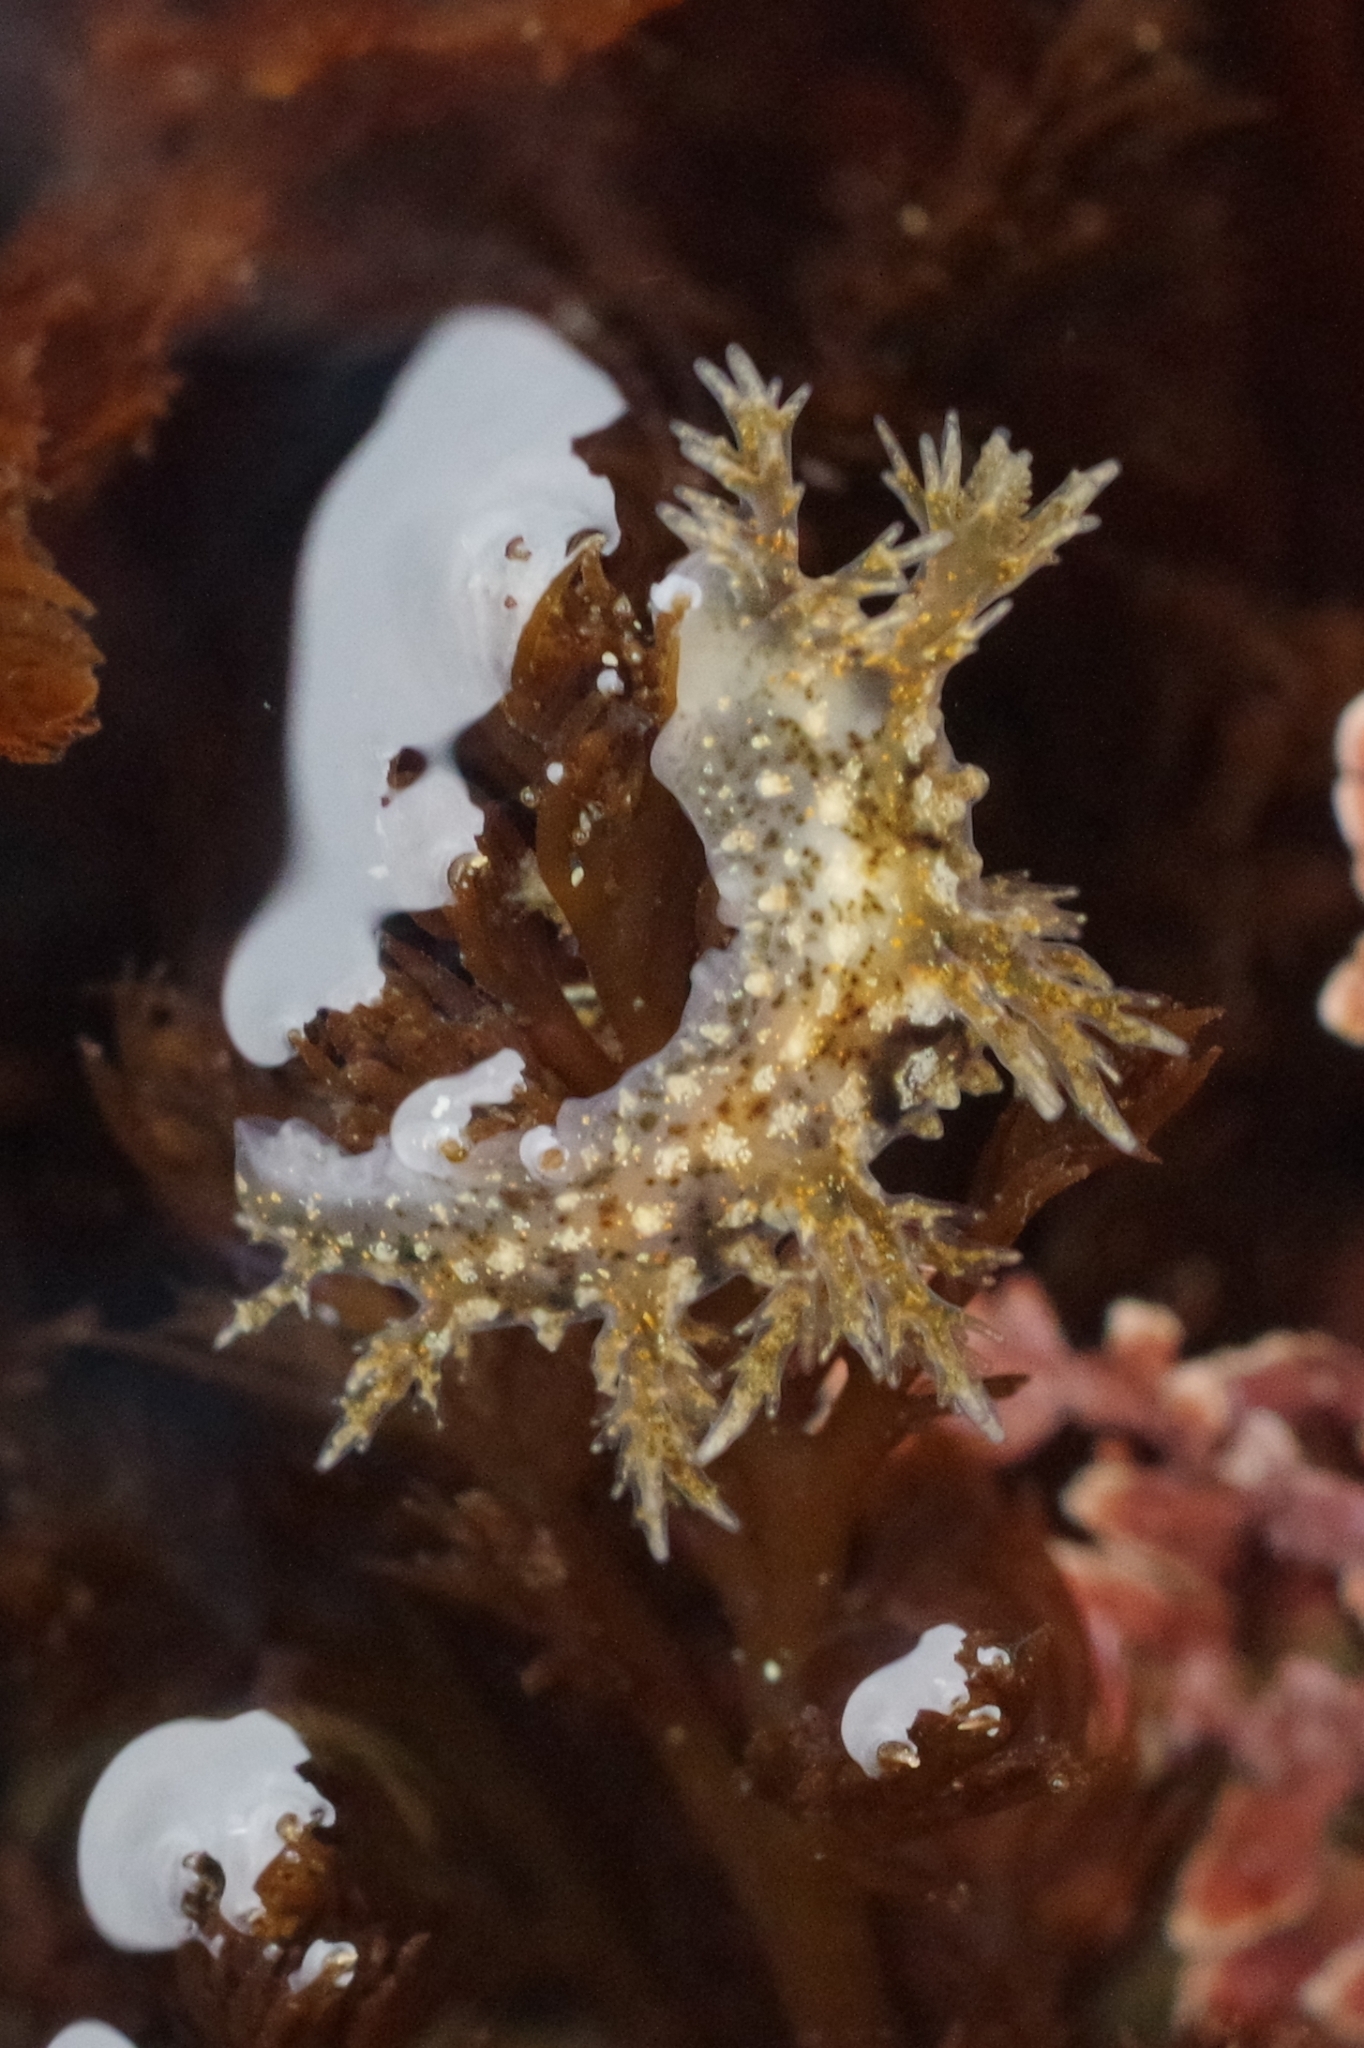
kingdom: Animalia
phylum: Mollusca
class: Gastropoda
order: Nudibranchia
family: Dendronotidae
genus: Dendronotus
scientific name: Dendronotus venustus
